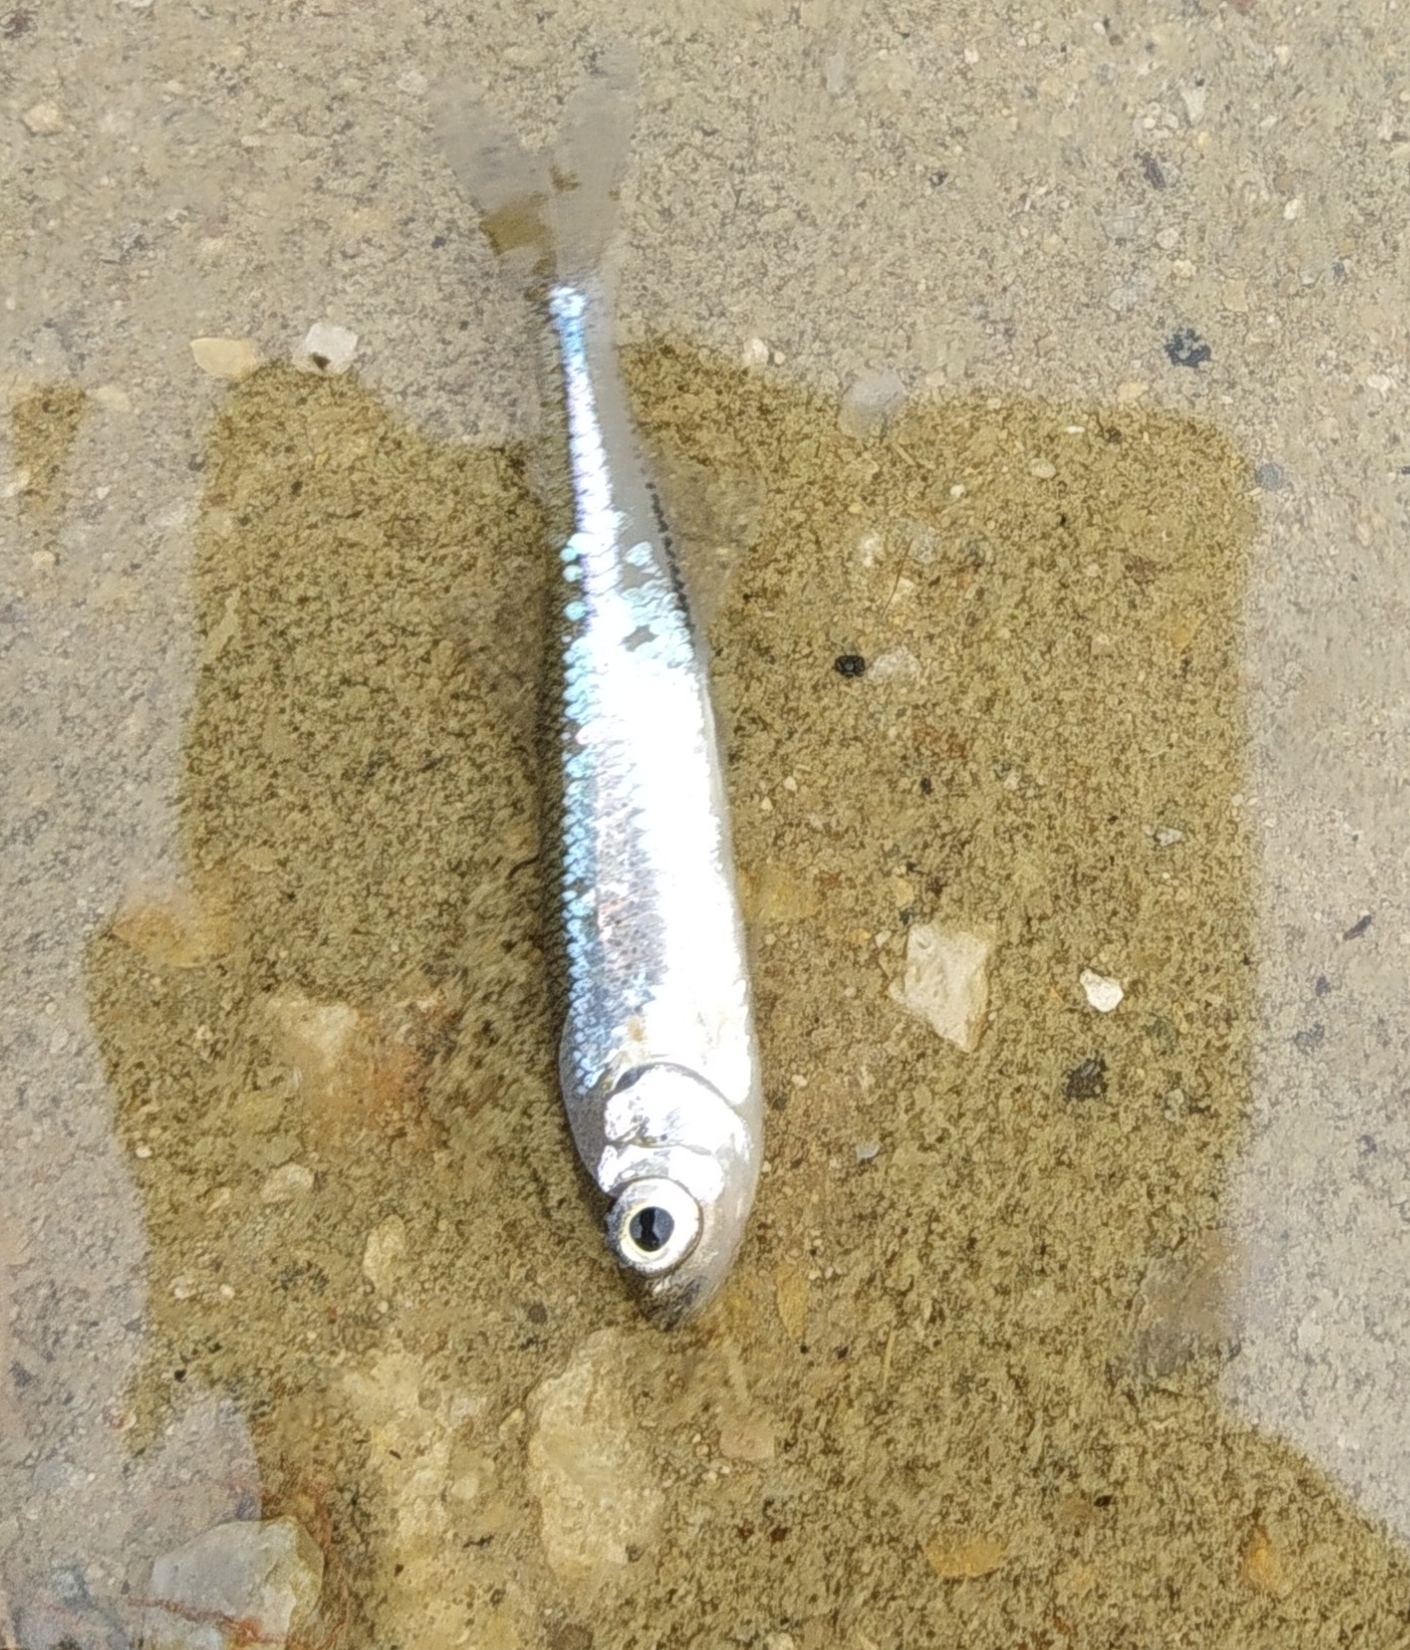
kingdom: Animalia
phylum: Chordata
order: Cypriniformes
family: Cyprinidae
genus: Leucaspius
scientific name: Leucaspius delineatus
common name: Sunbleak
